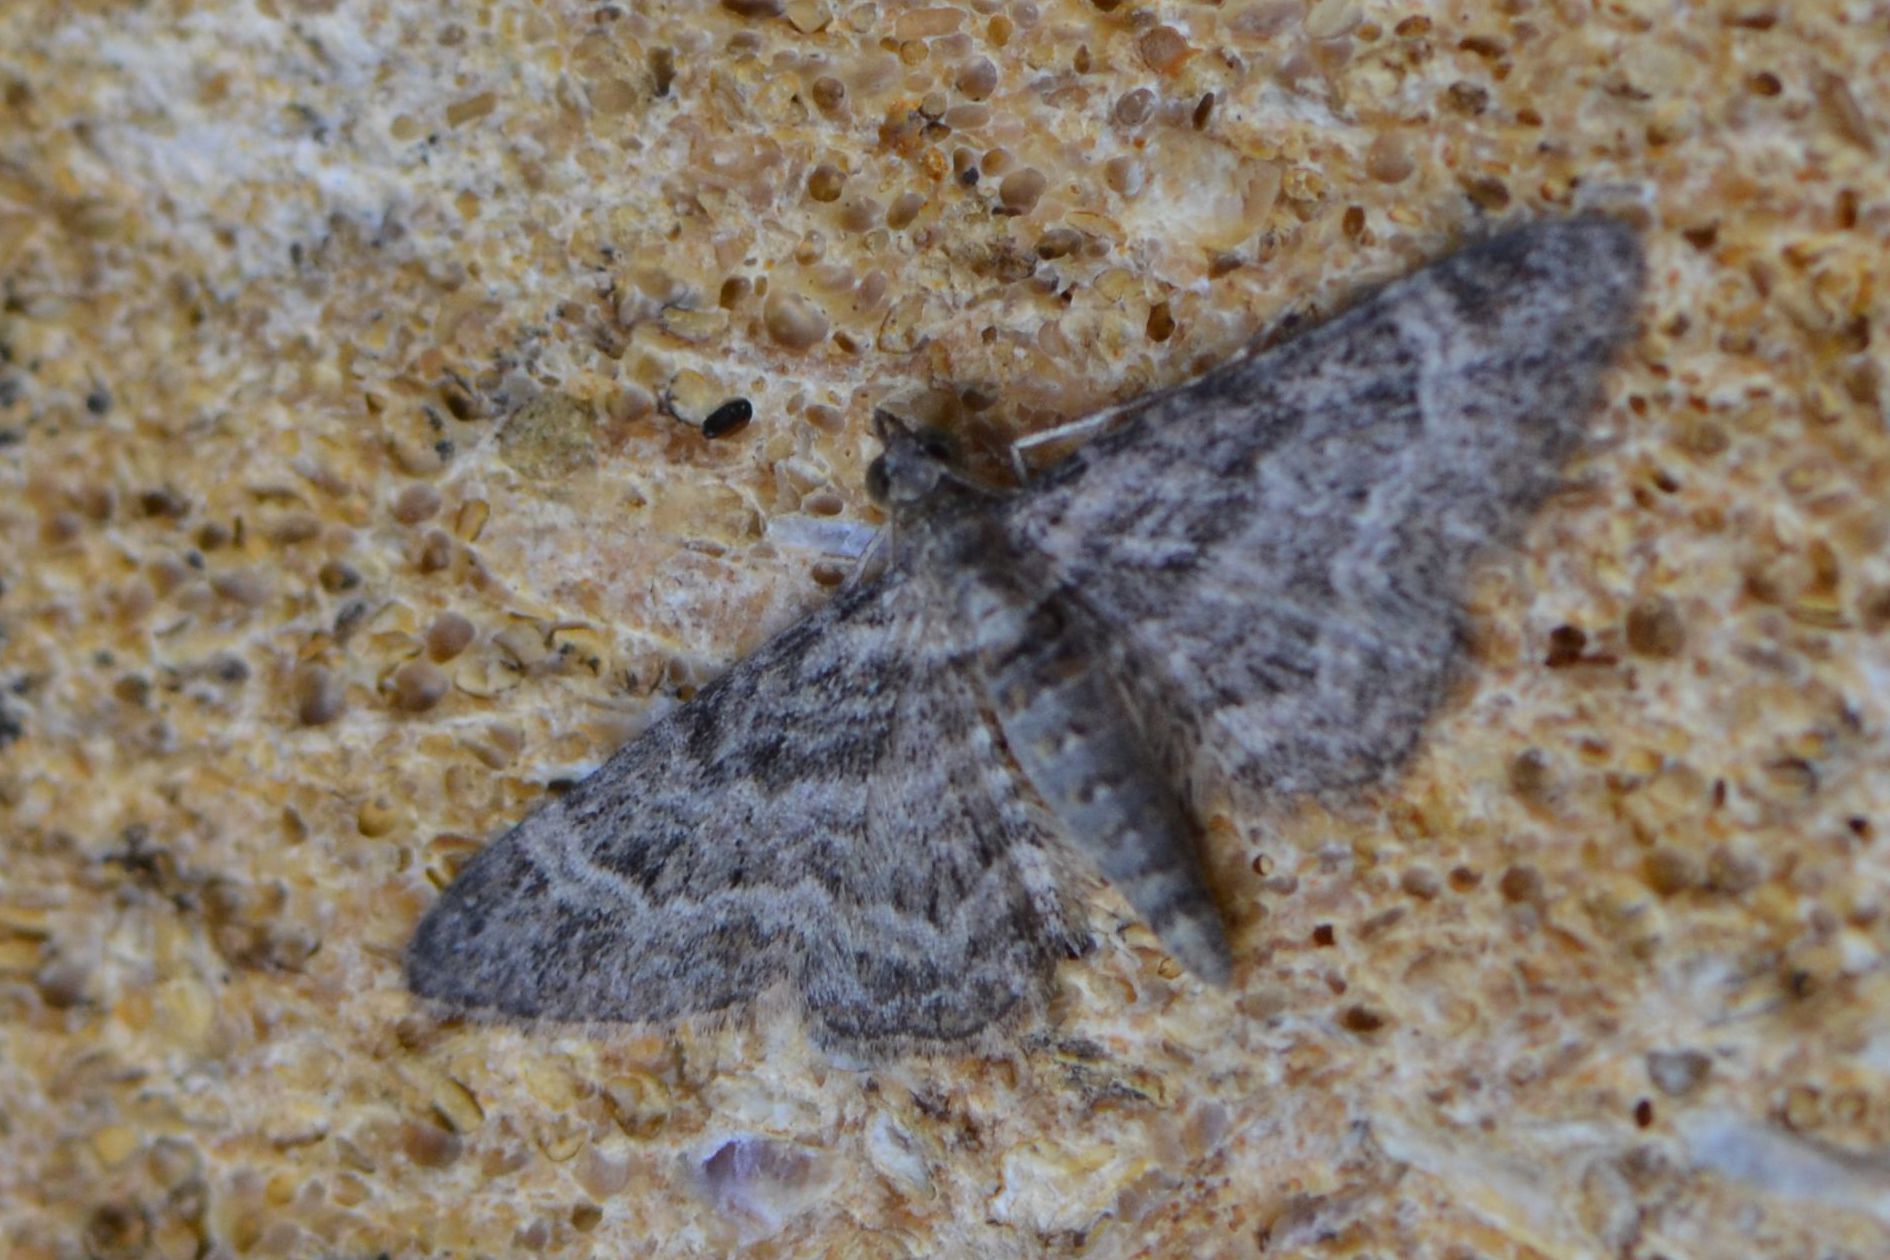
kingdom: Animalia
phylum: Arthropoda
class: Insecta
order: Lepidoptera
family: Geometridae
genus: Gymnoscelis
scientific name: Gymnoscelis rufifasciata
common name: Double-striped pug
